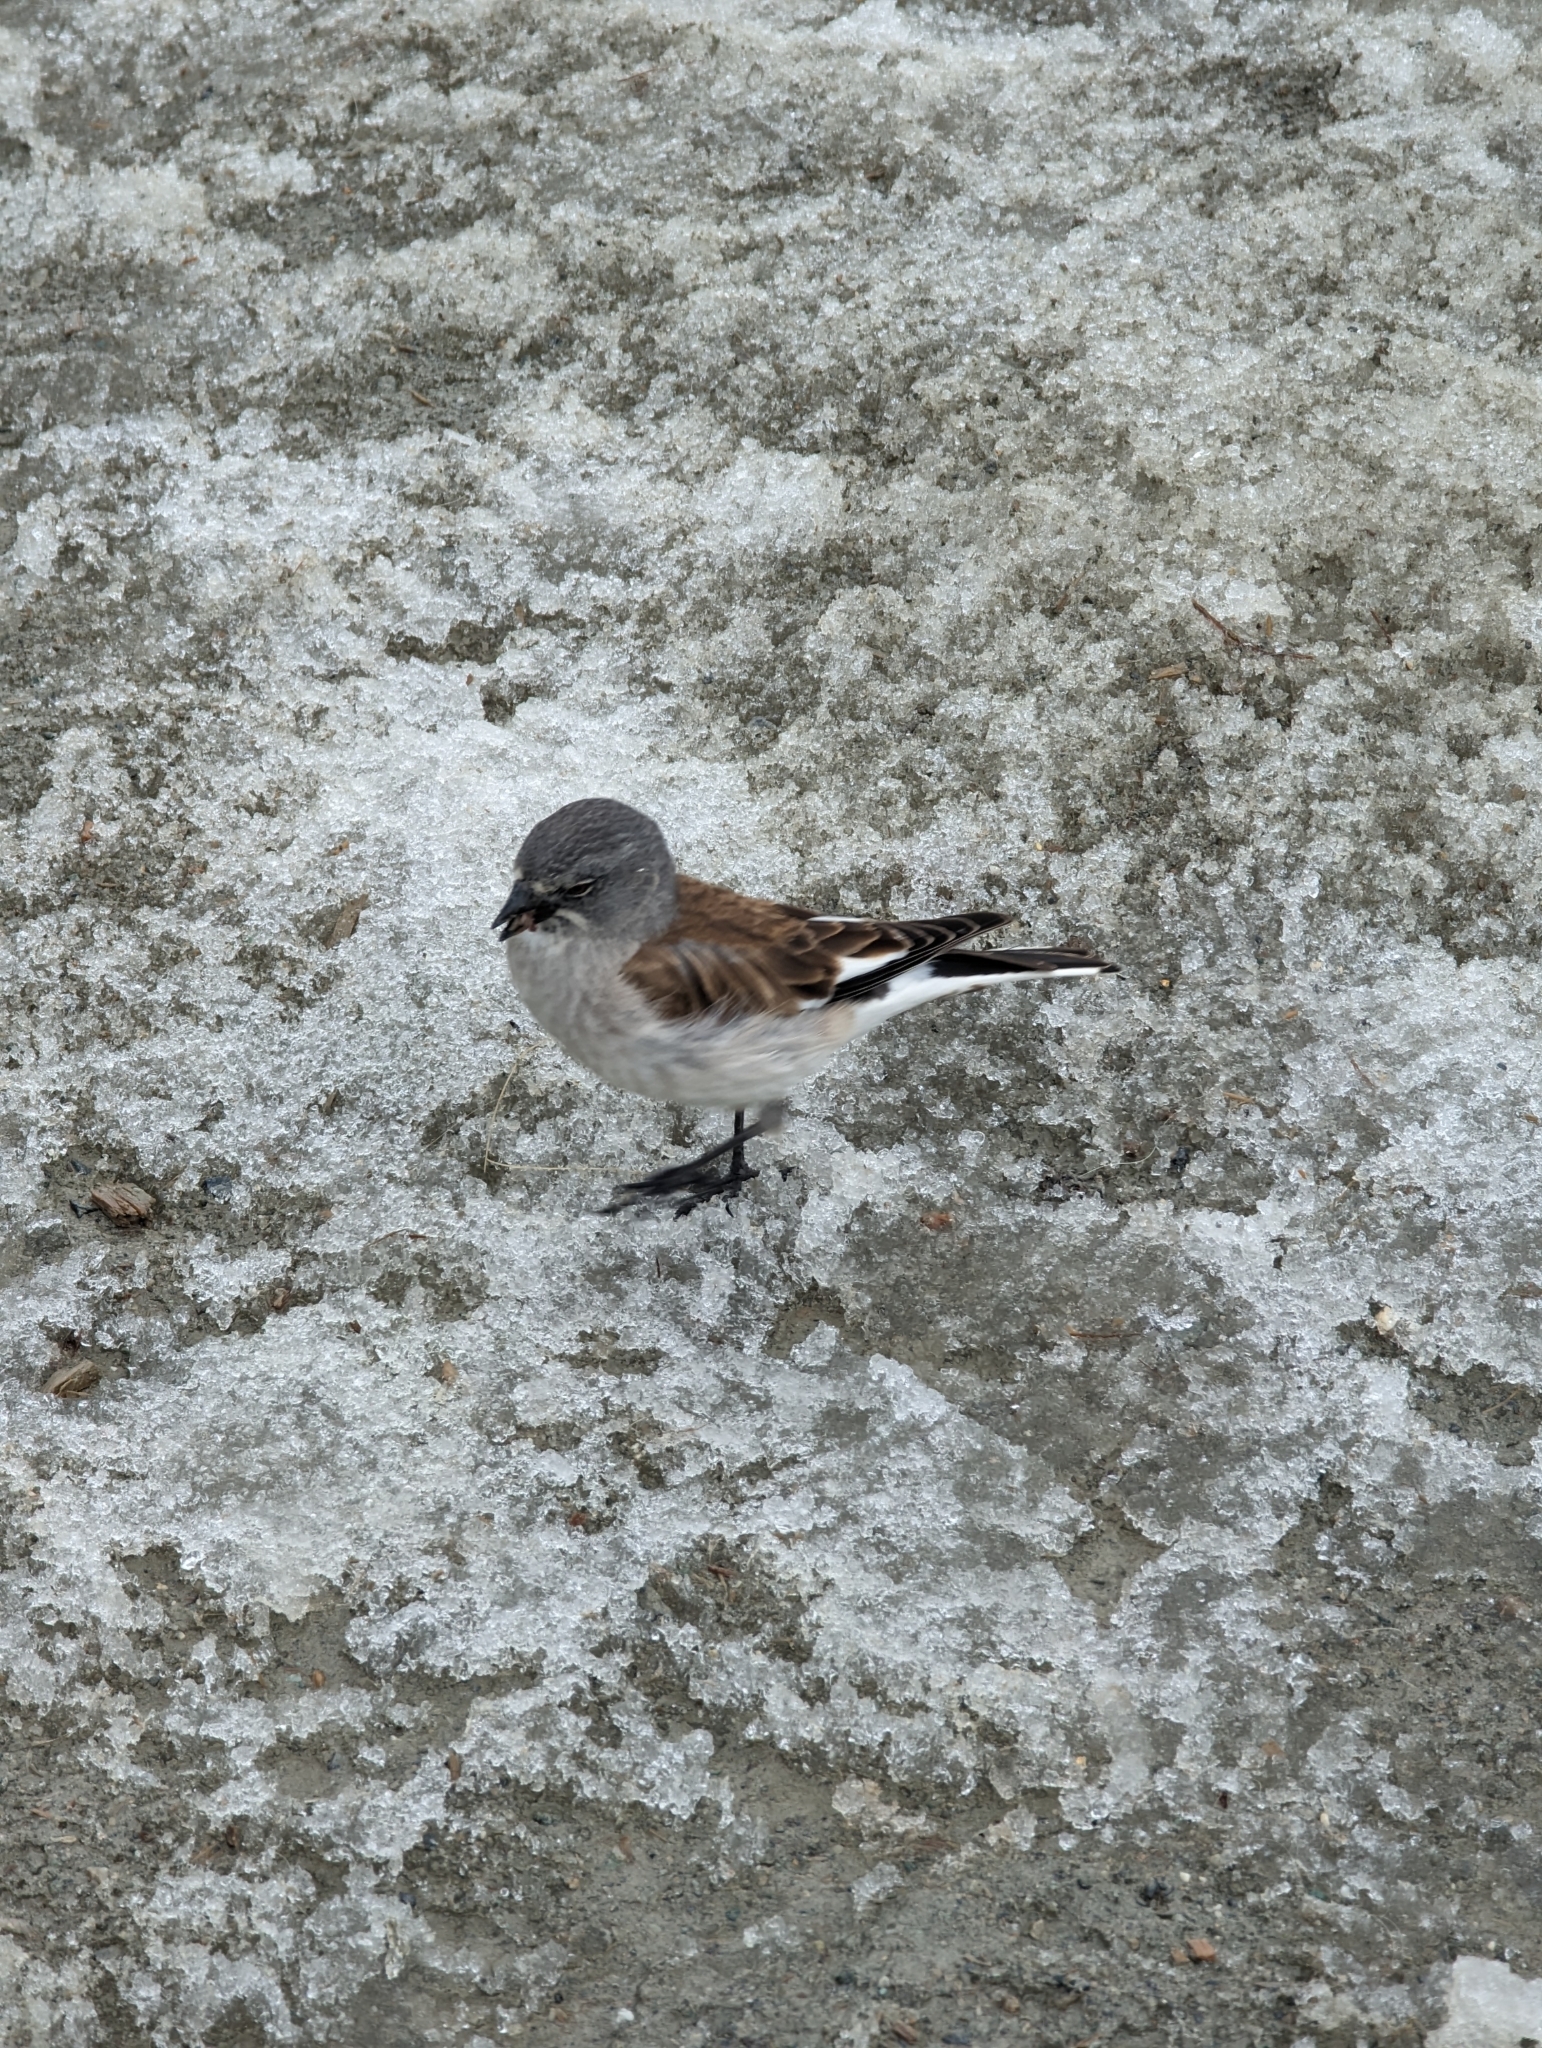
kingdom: Animalia
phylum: Chordata
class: Aves
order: Passeriformes
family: Passeridae
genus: Montifringilla
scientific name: Montifringilla nivalis
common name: White-winged snowfinch
